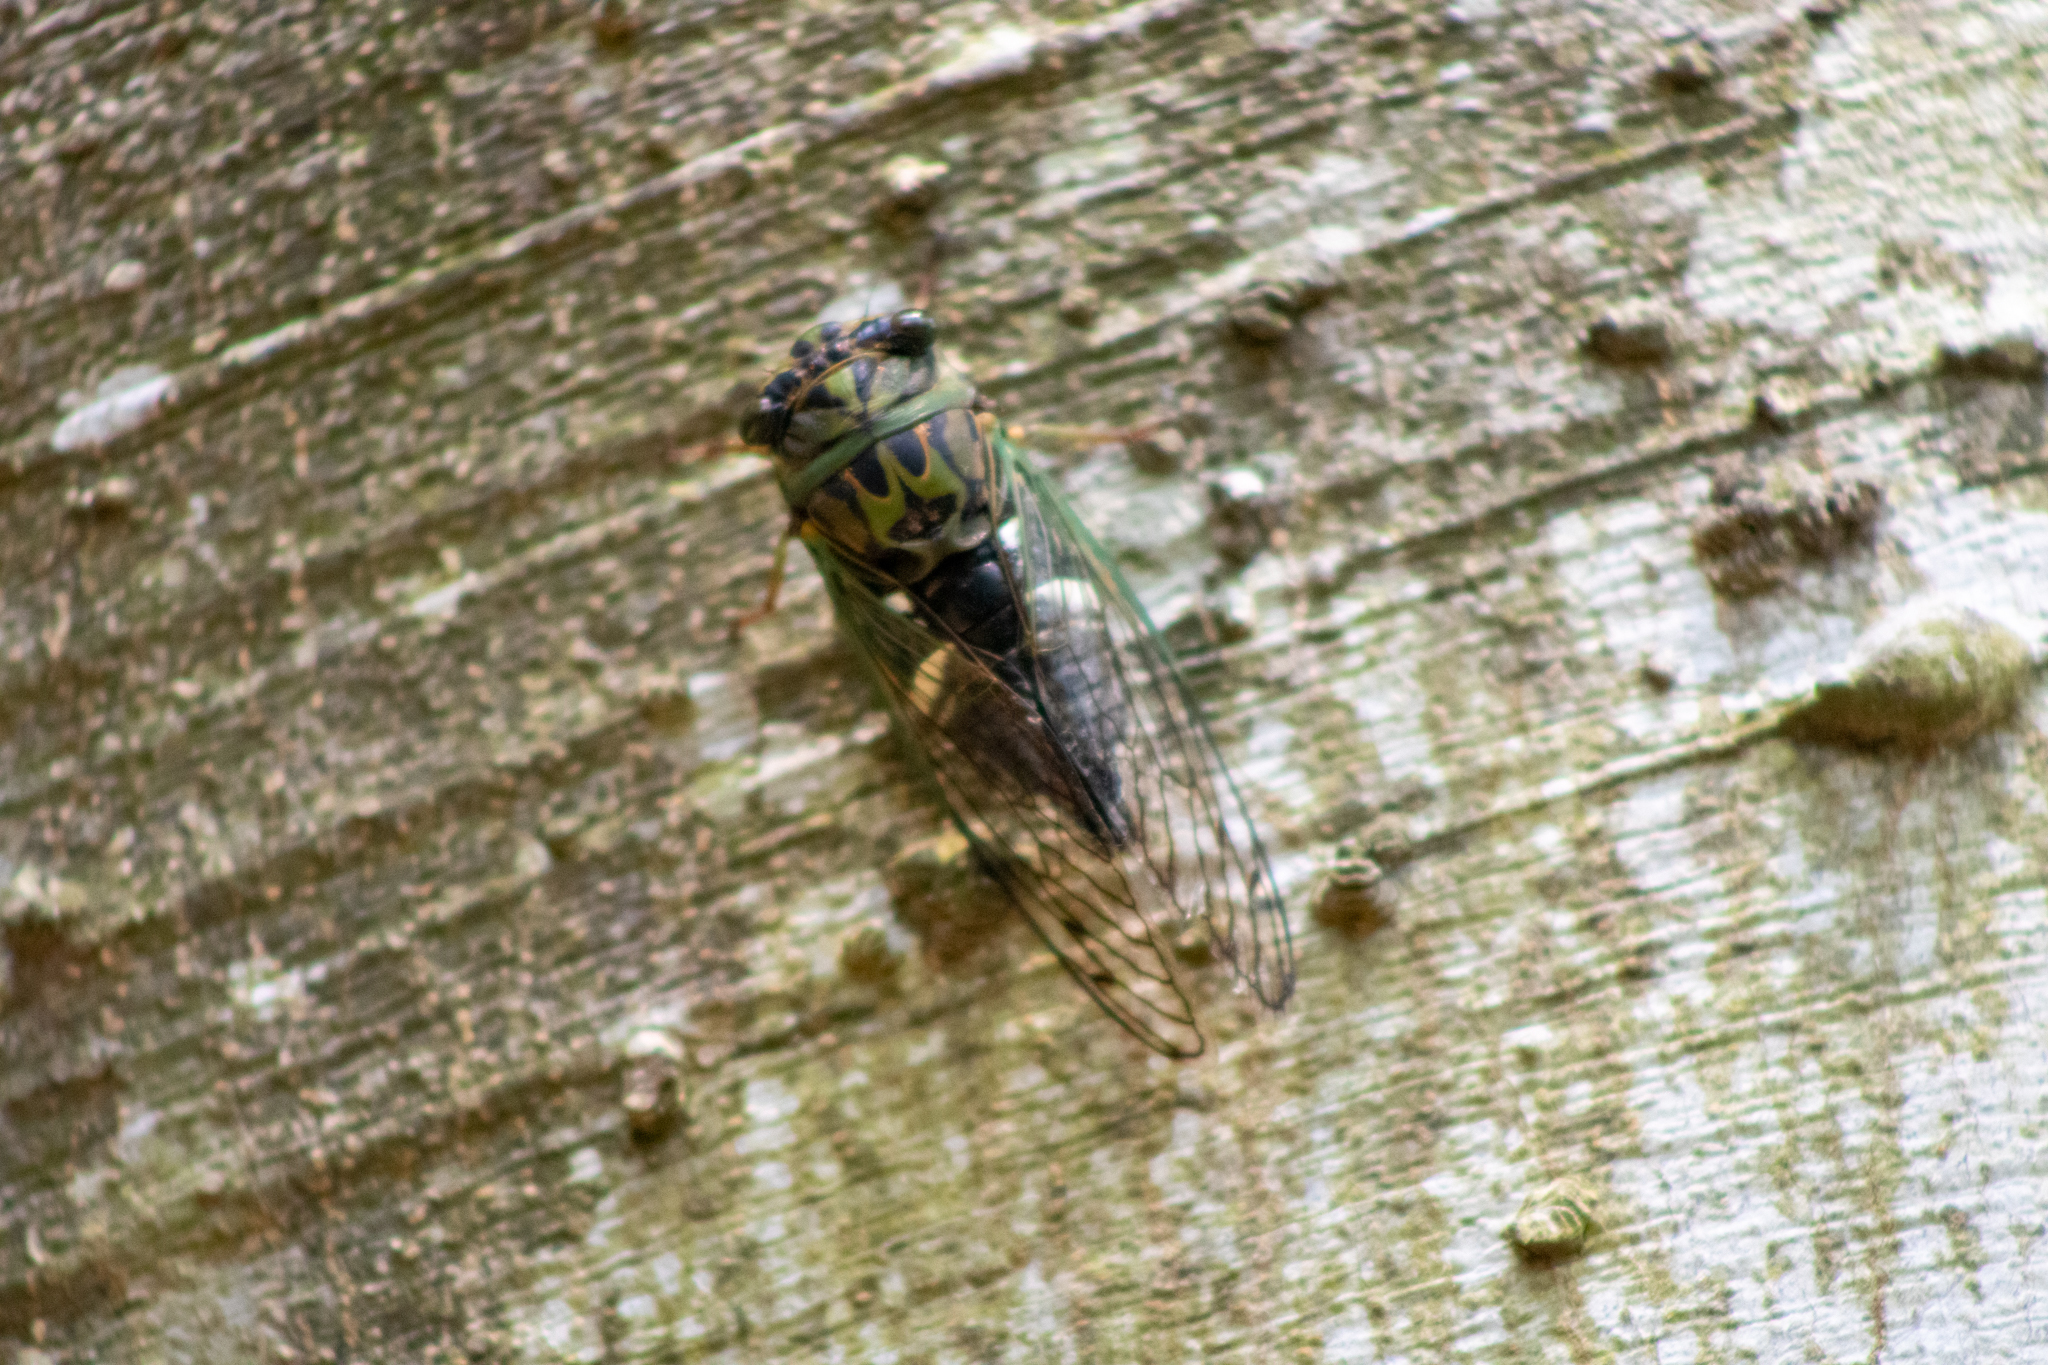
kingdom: Animalia
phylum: Arthropoda
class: Insecta
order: Hemiptera
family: Cicadidae
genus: Neotibicen
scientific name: Neotibicen latifasciatus
